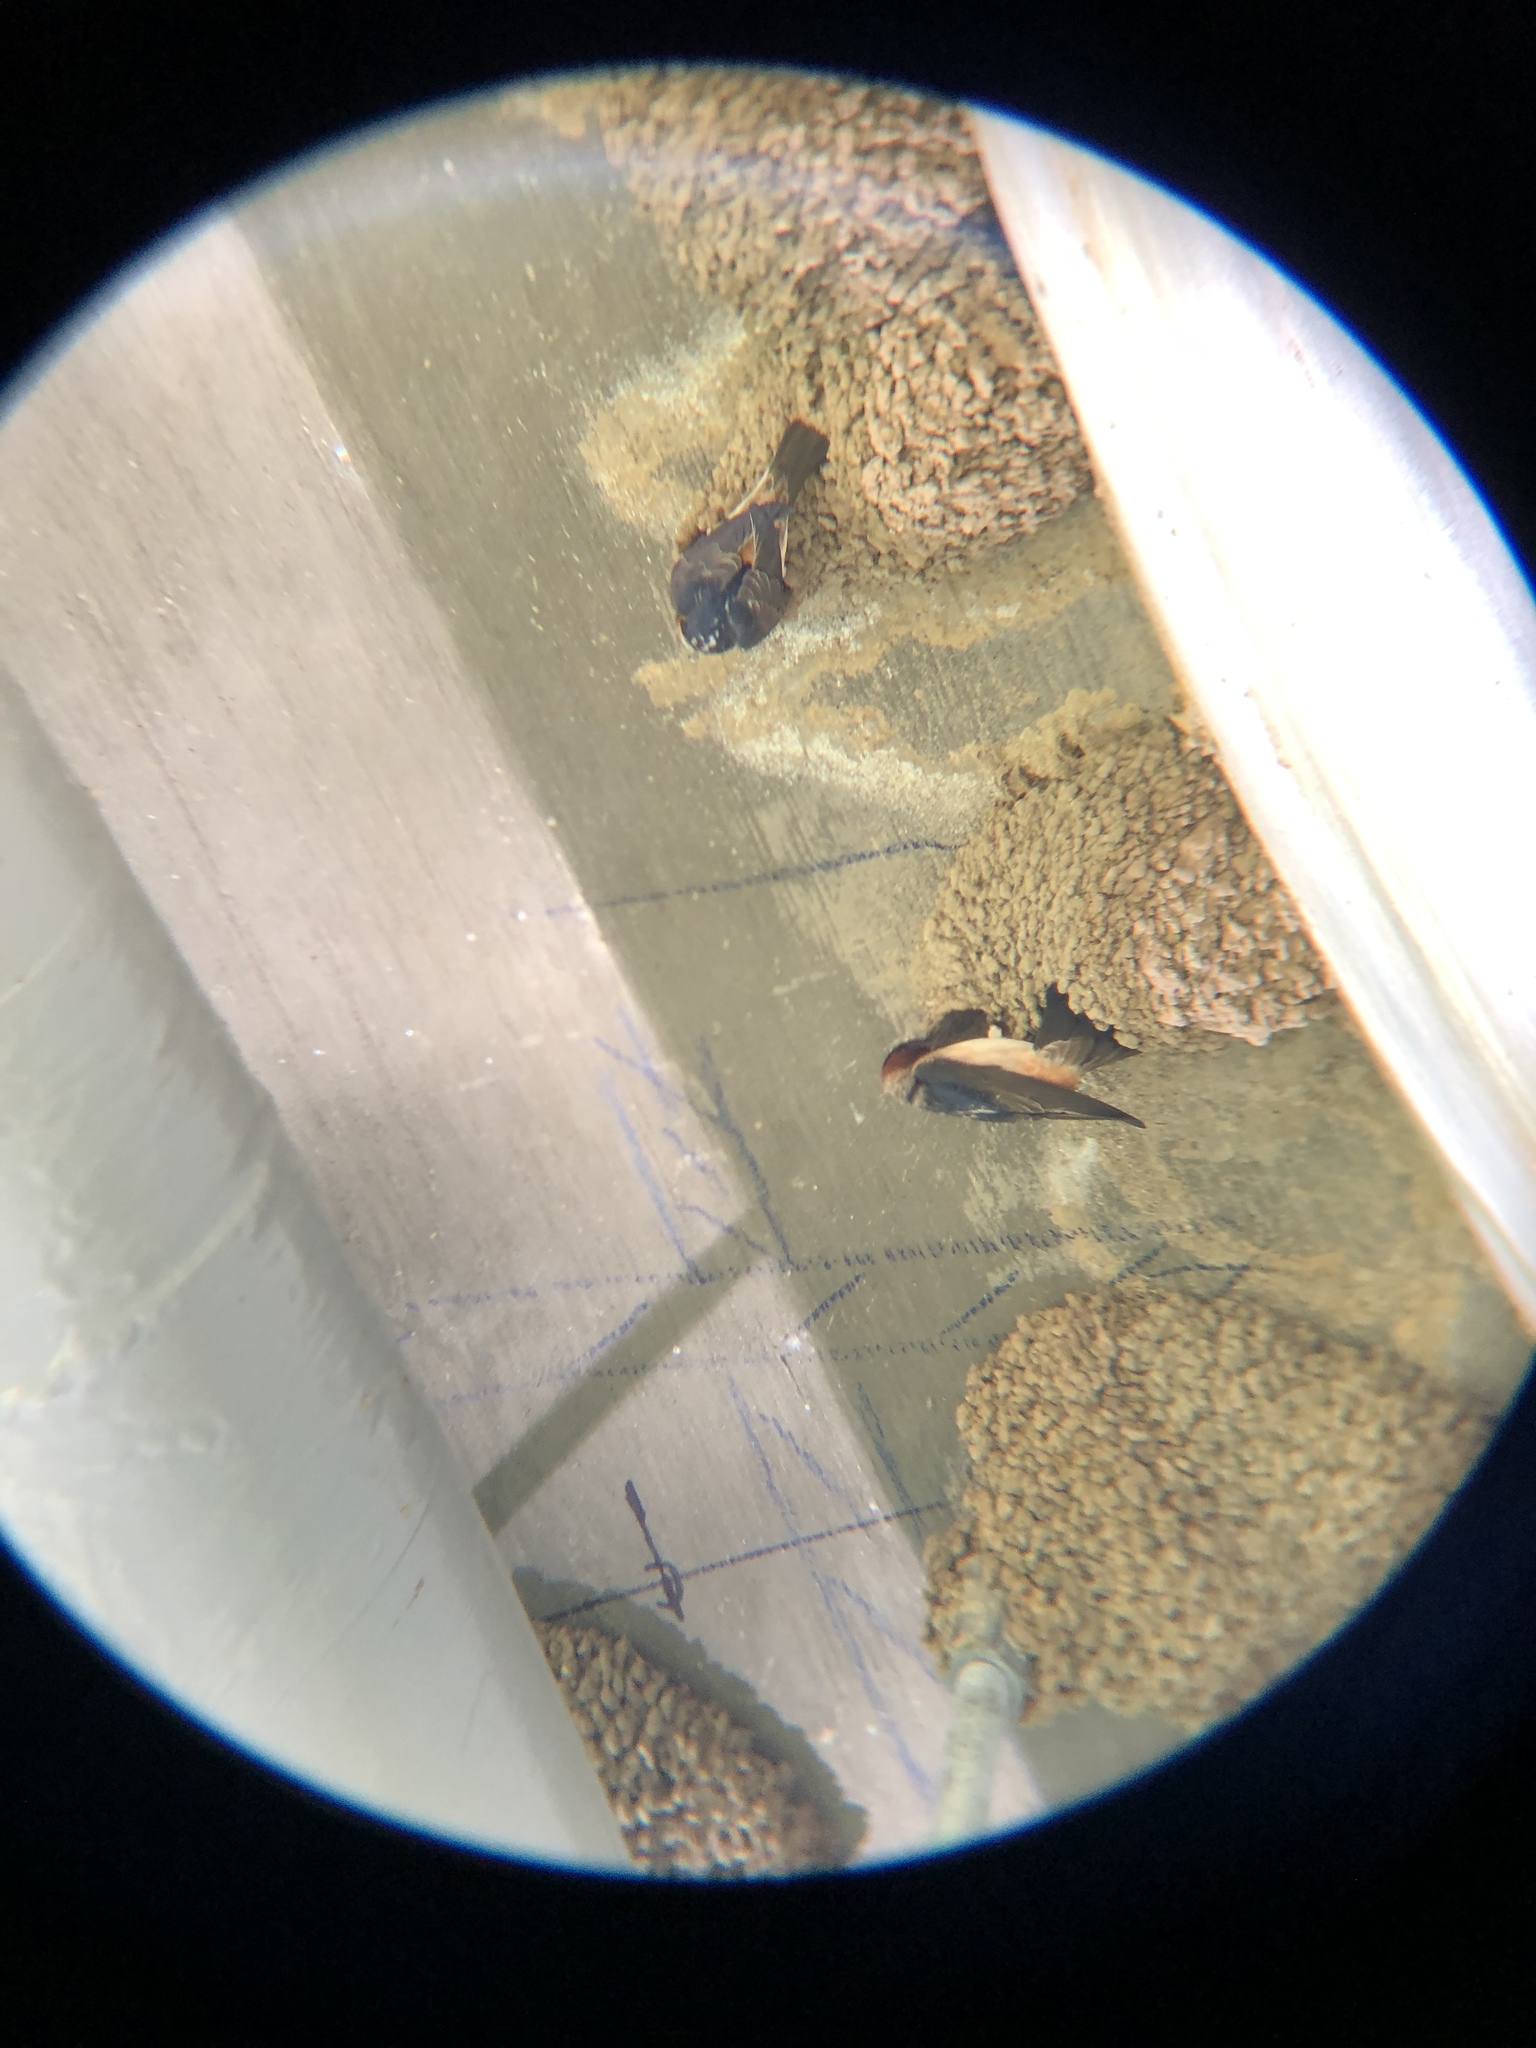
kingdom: Animalia
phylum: Chordata
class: Aves
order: Passeriformes
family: Hirundinidae
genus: Petrochelidon
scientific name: Petrochelidon pyrrhonota
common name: American cliff swallow
